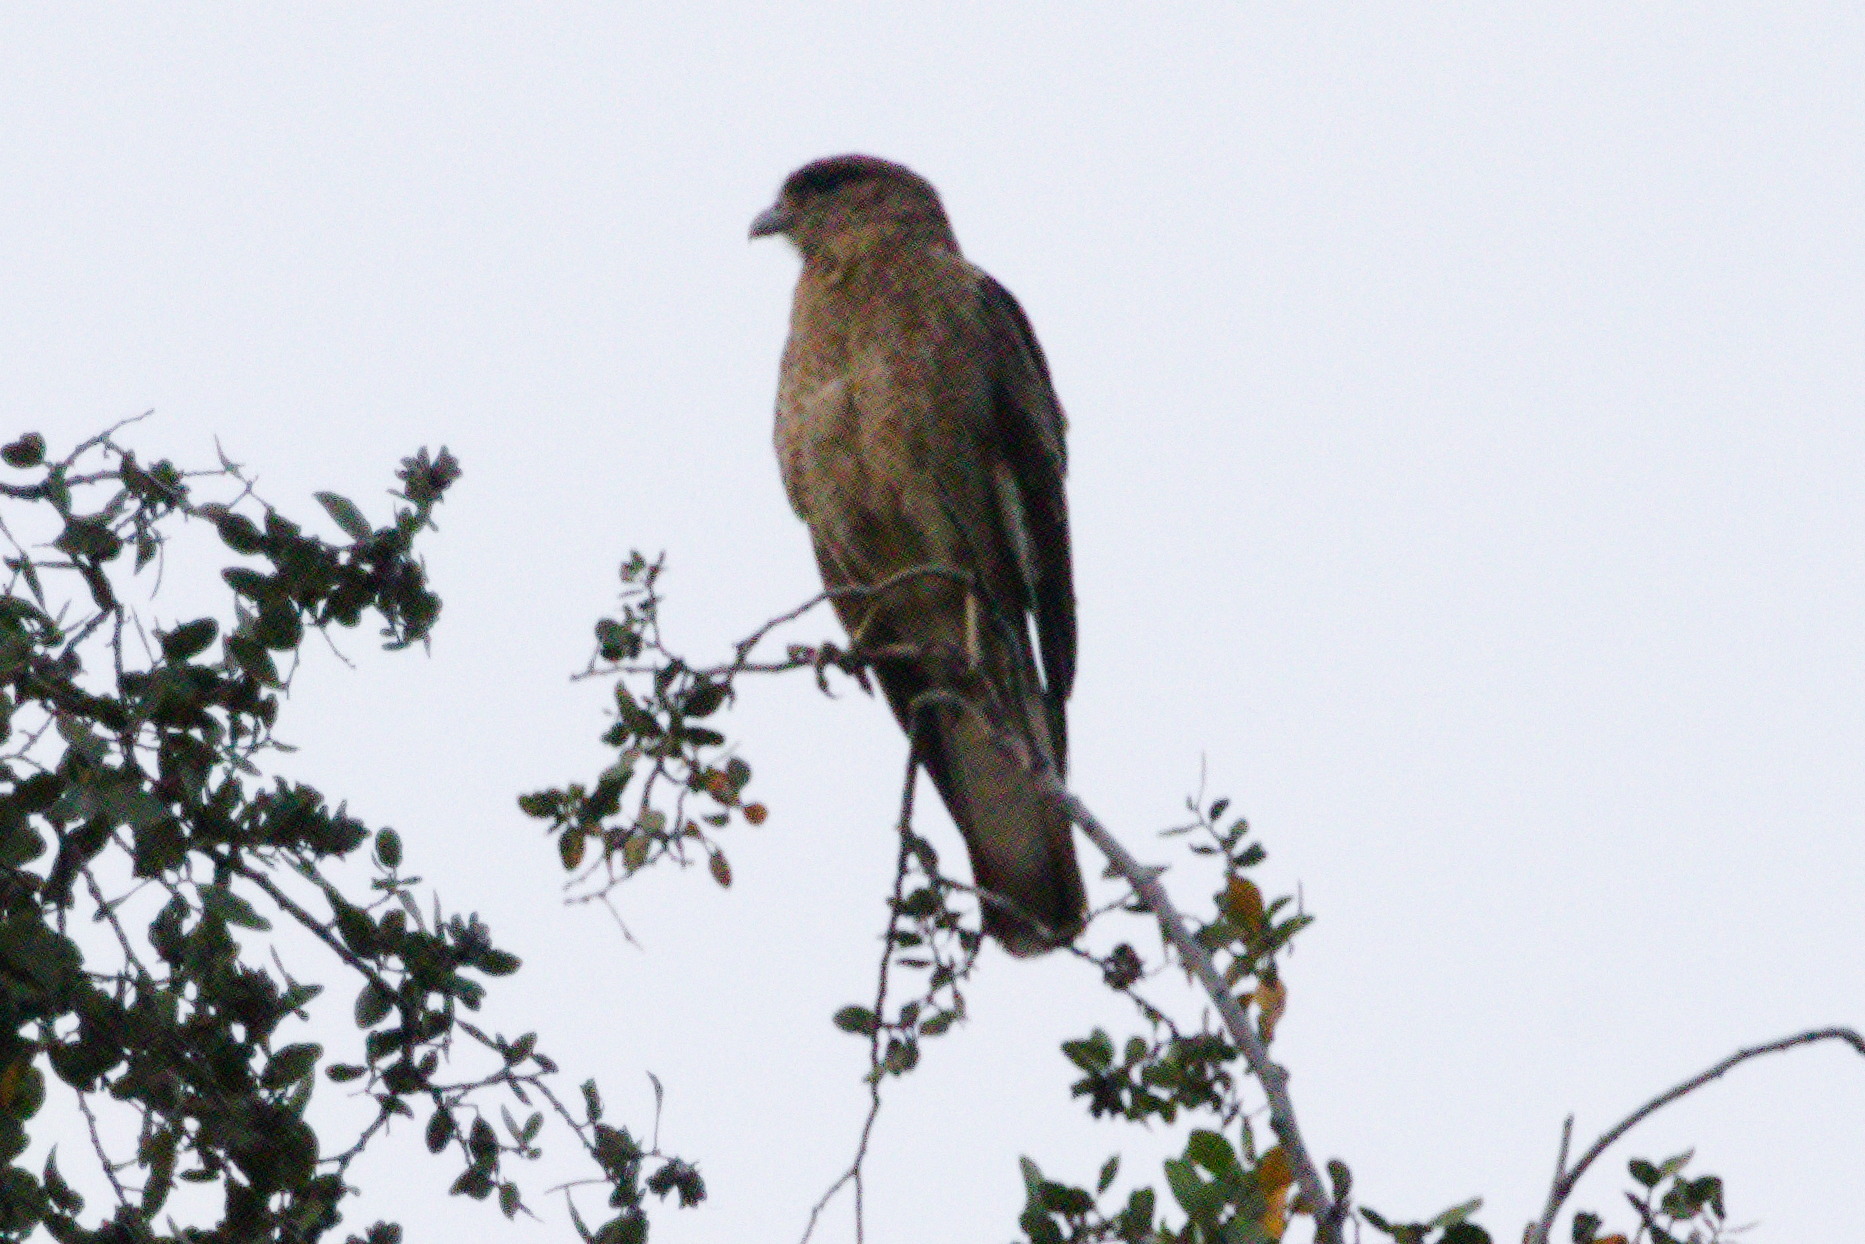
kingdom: Animalia
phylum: Chordata
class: Aves
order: Falconiformes
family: Falconidae
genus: Daptrius
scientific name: Daptrius
